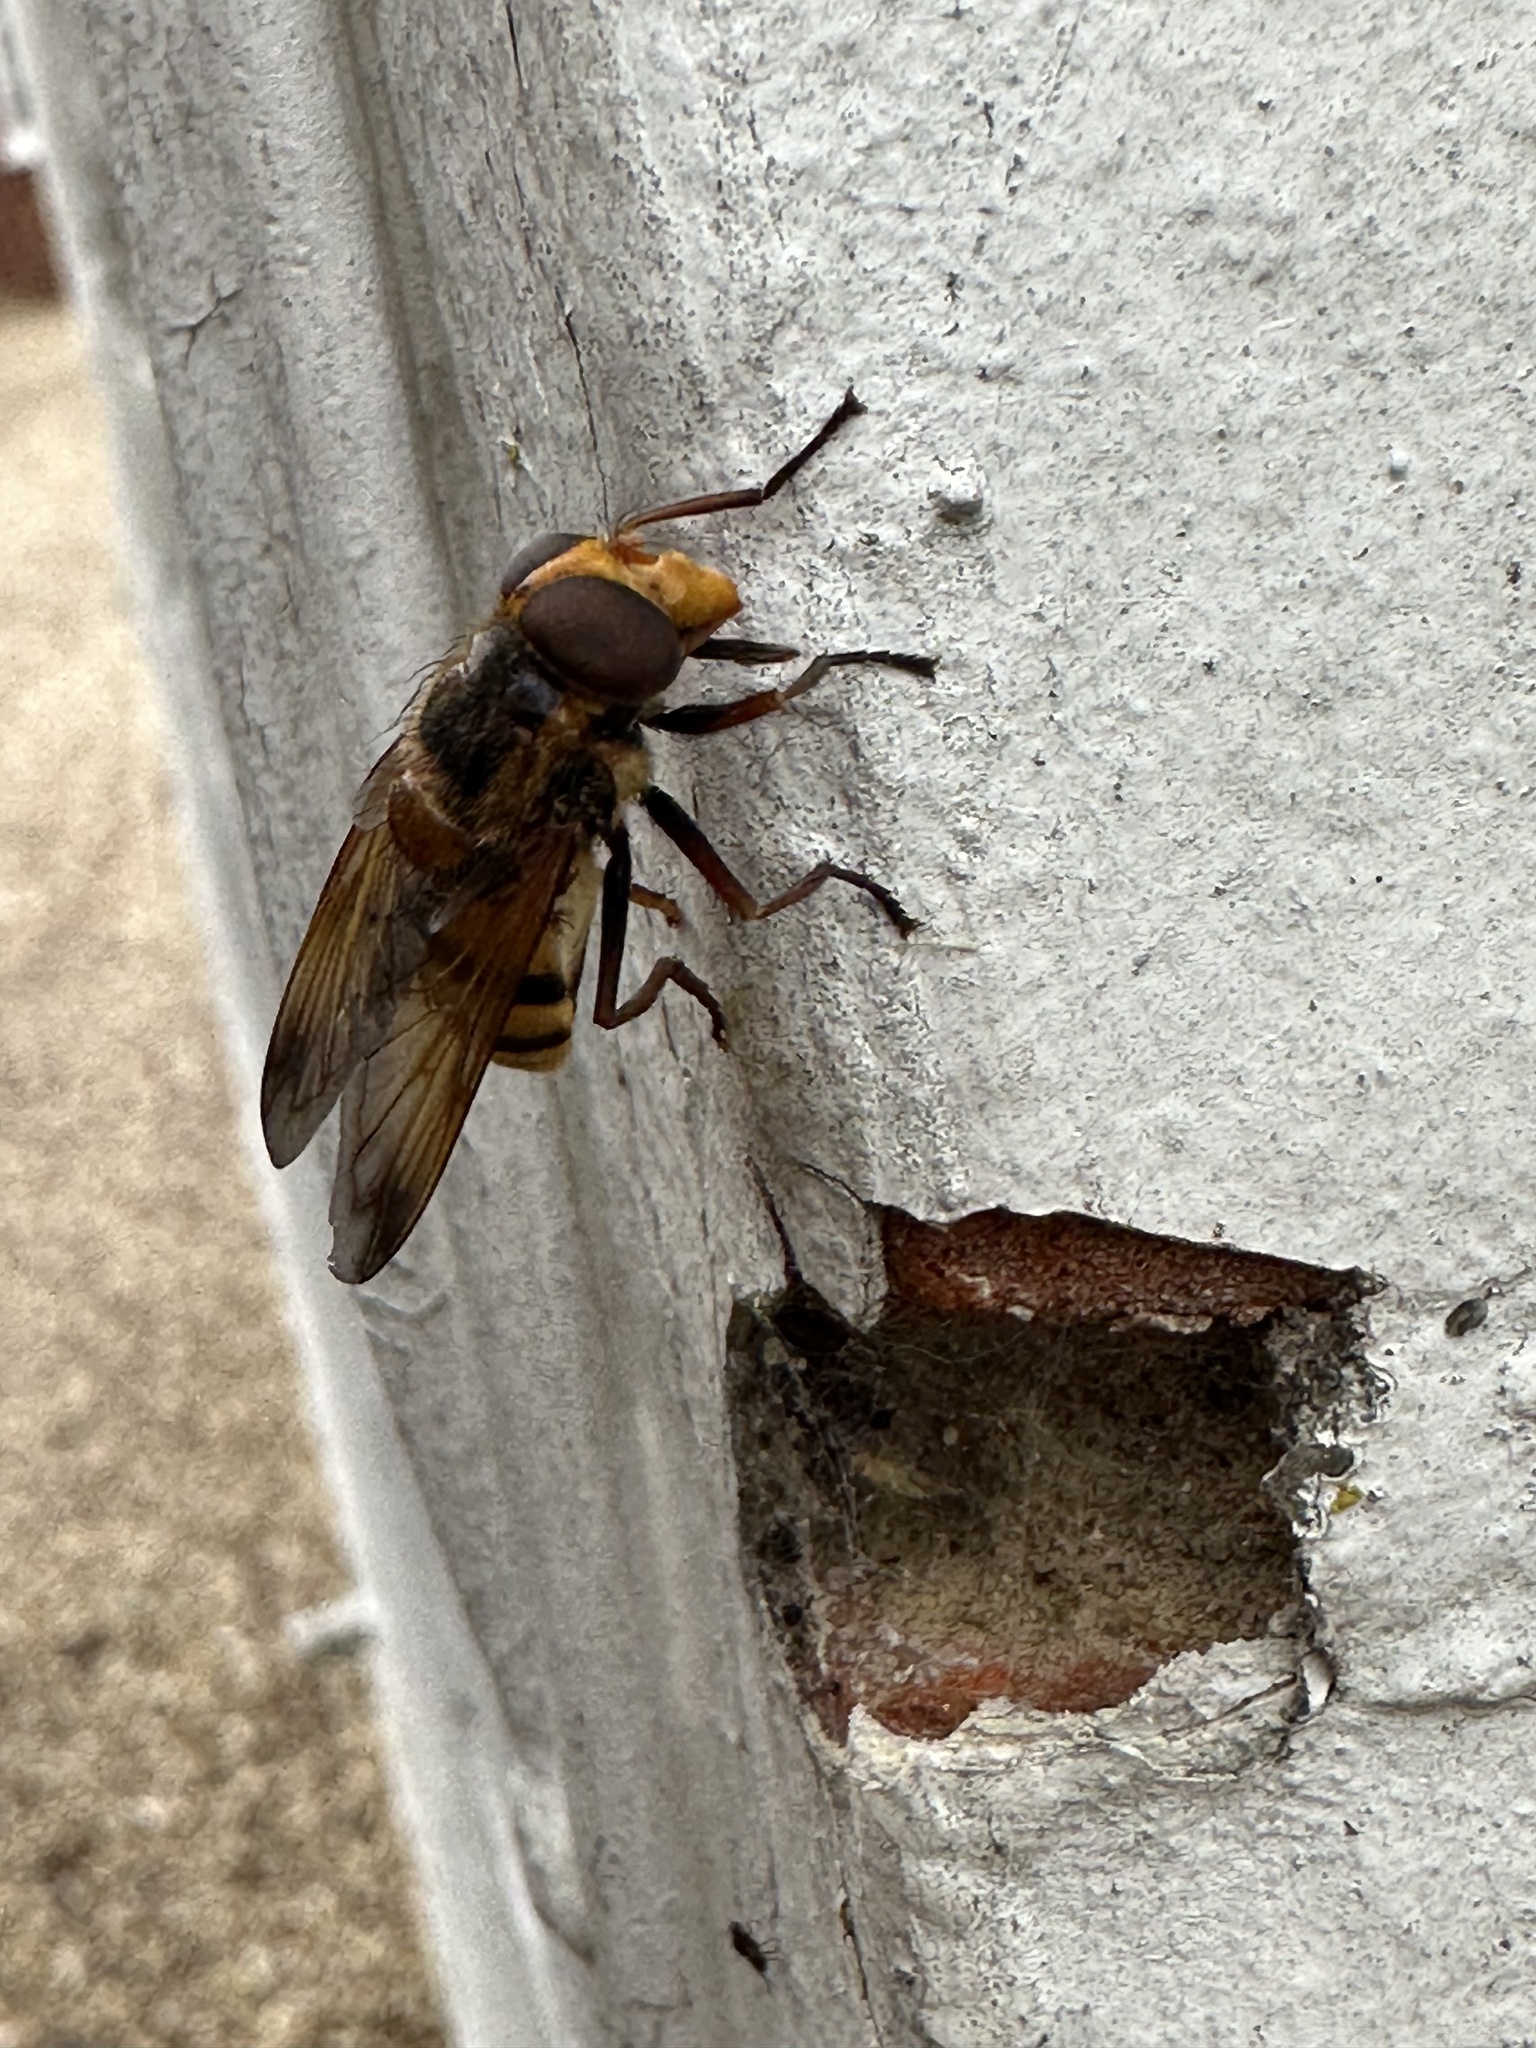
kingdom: Animalia
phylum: Arthropoda
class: Insecta
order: Diptera
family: Syrphidae
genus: Volucella
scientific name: Volucella inanis
